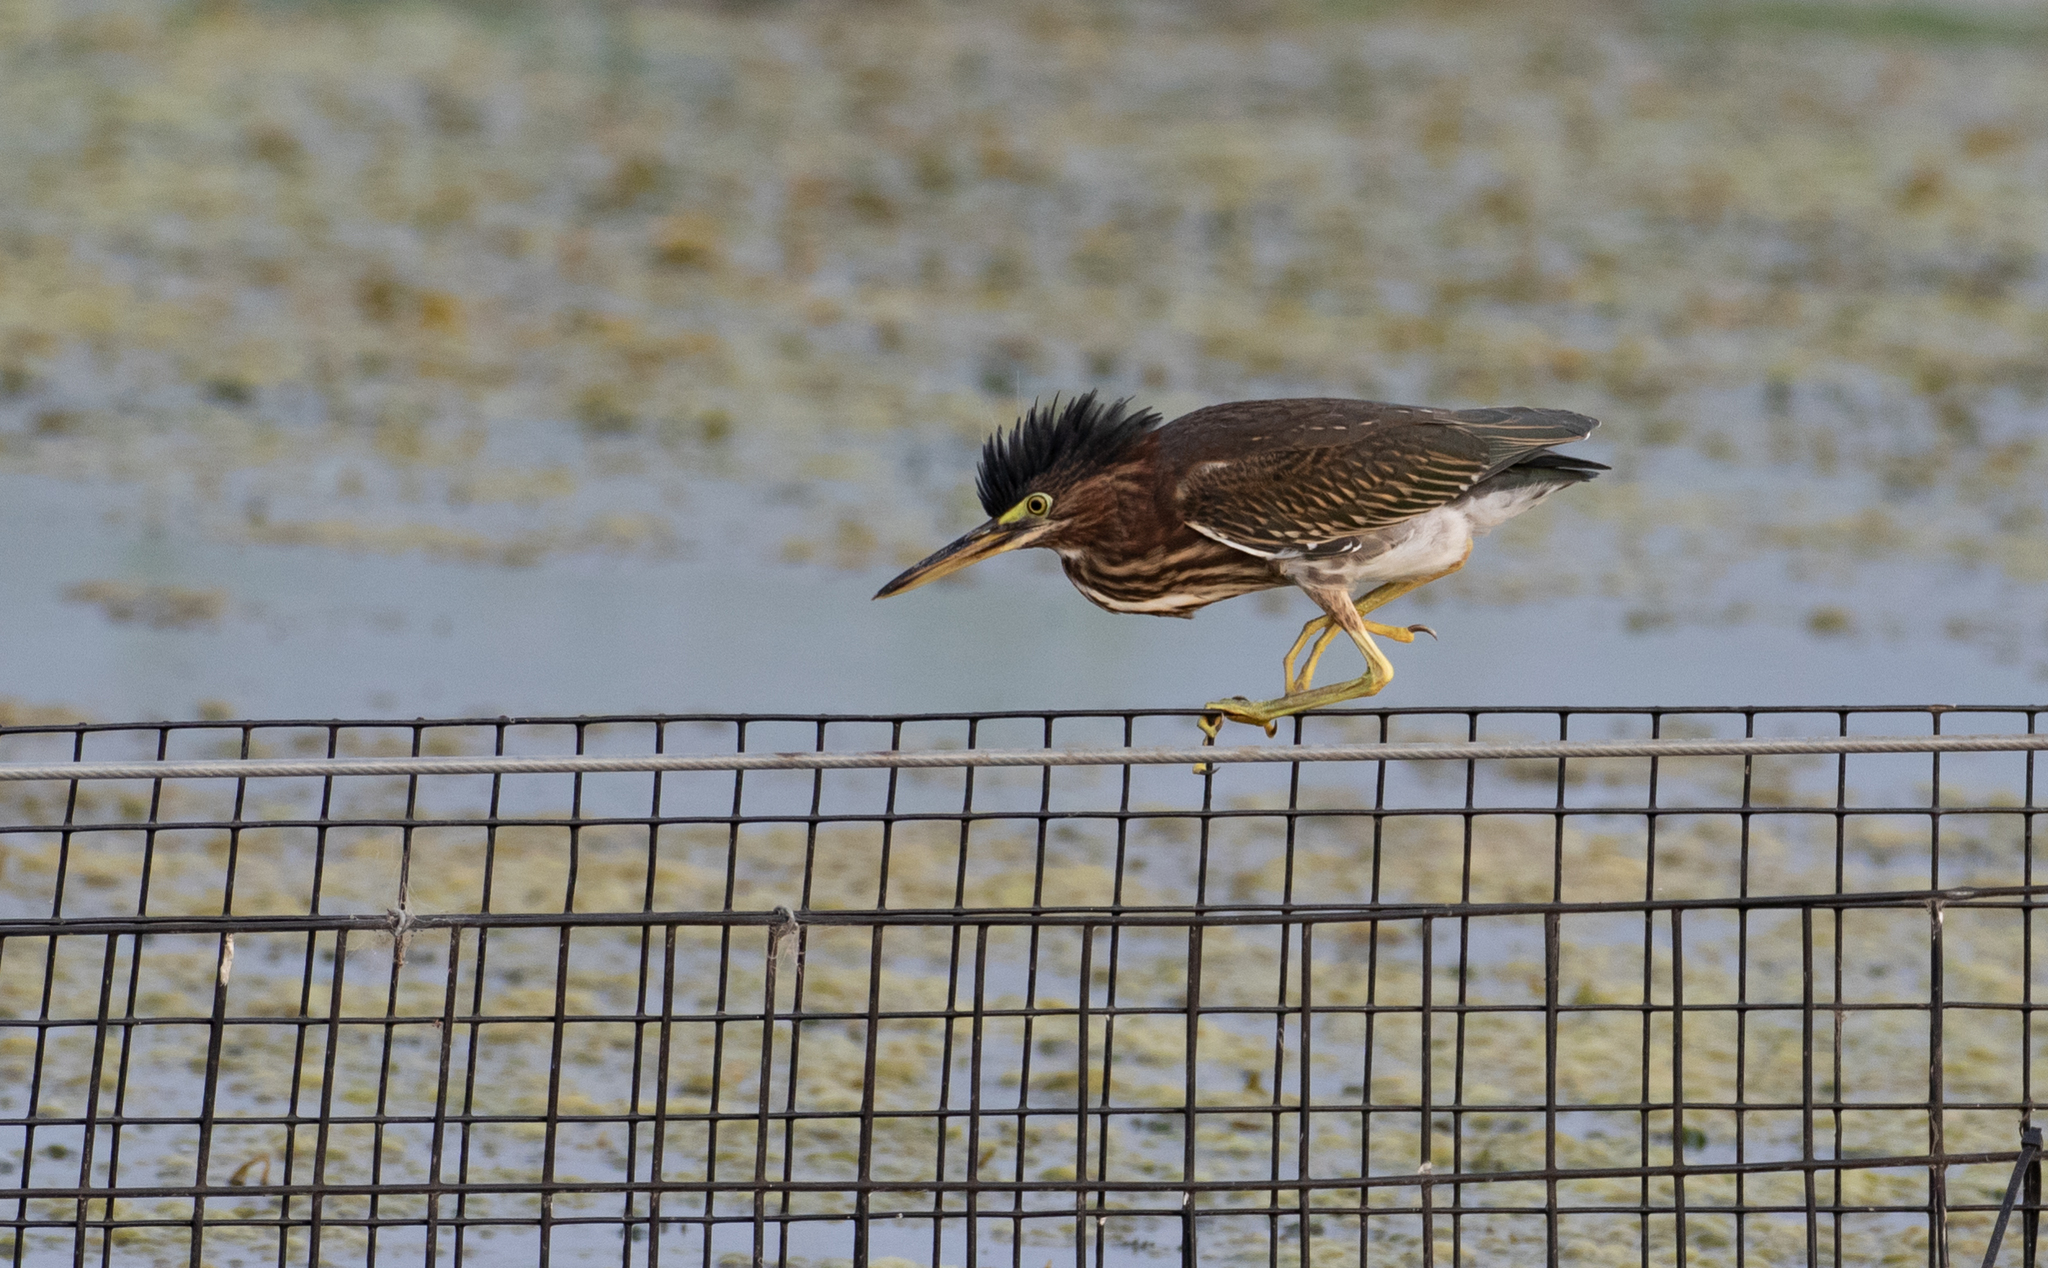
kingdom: Animalia
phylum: Chordata
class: Aves
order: Pelecaniformes
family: Ardeidae
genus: Butorides
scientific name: Butorides virescens
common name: Green heron
